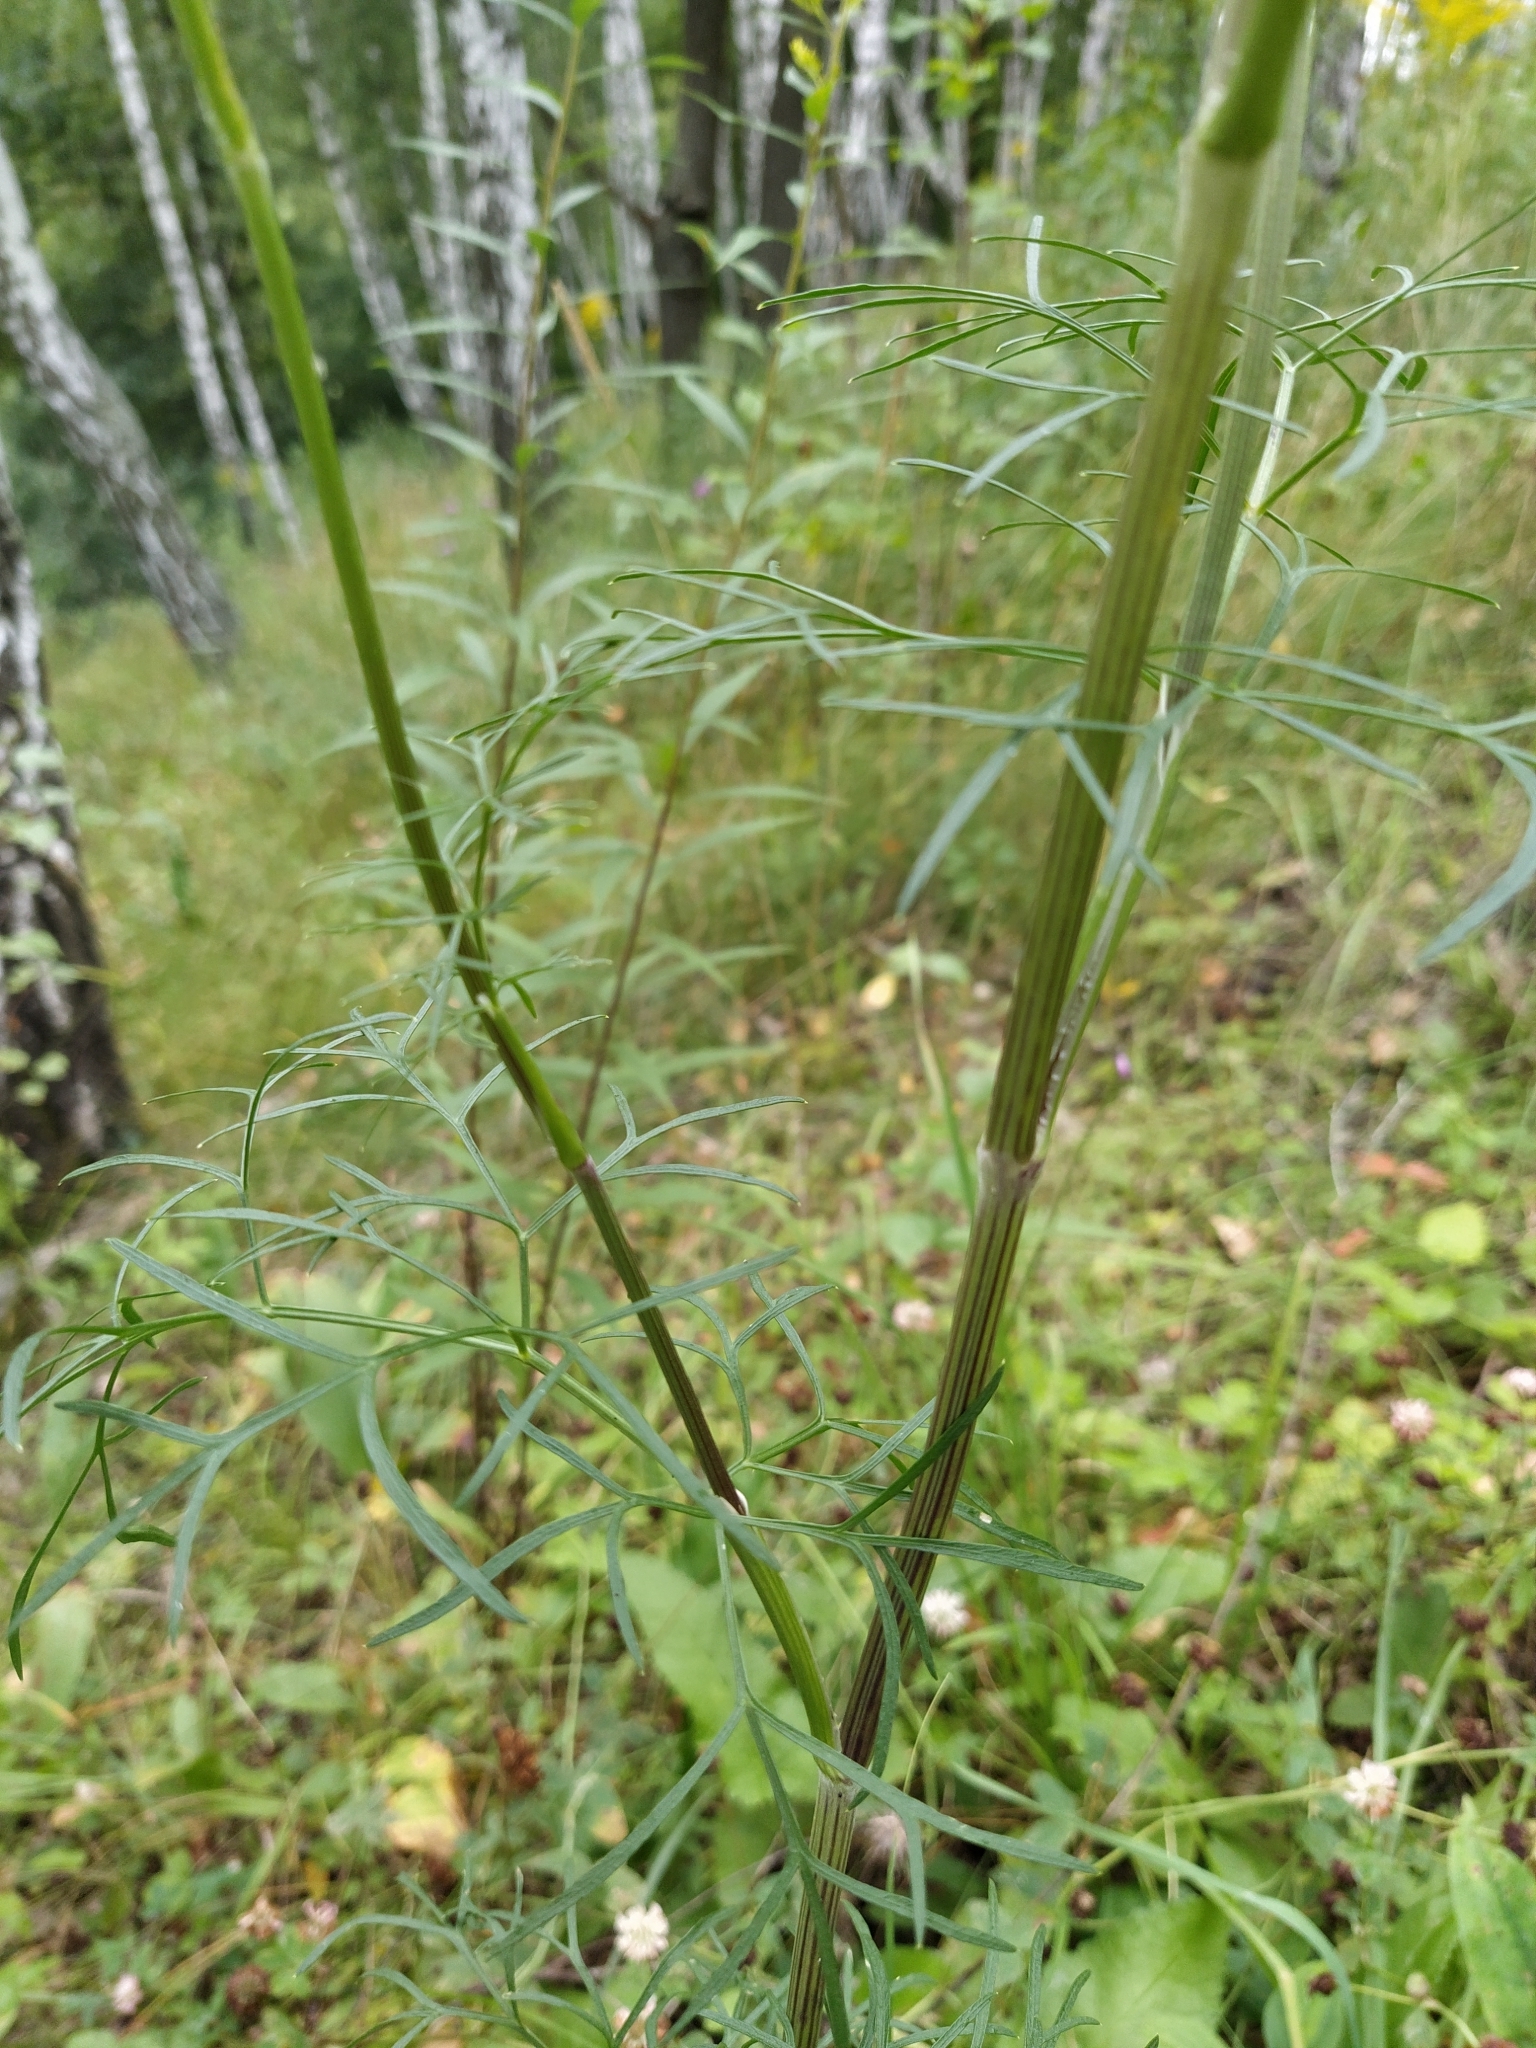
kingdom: Plantae
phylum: Tracheophyta
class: Magnoliopsida
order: Apiales
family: Apiaceae
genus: Seseli
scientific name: Seseli annuum
